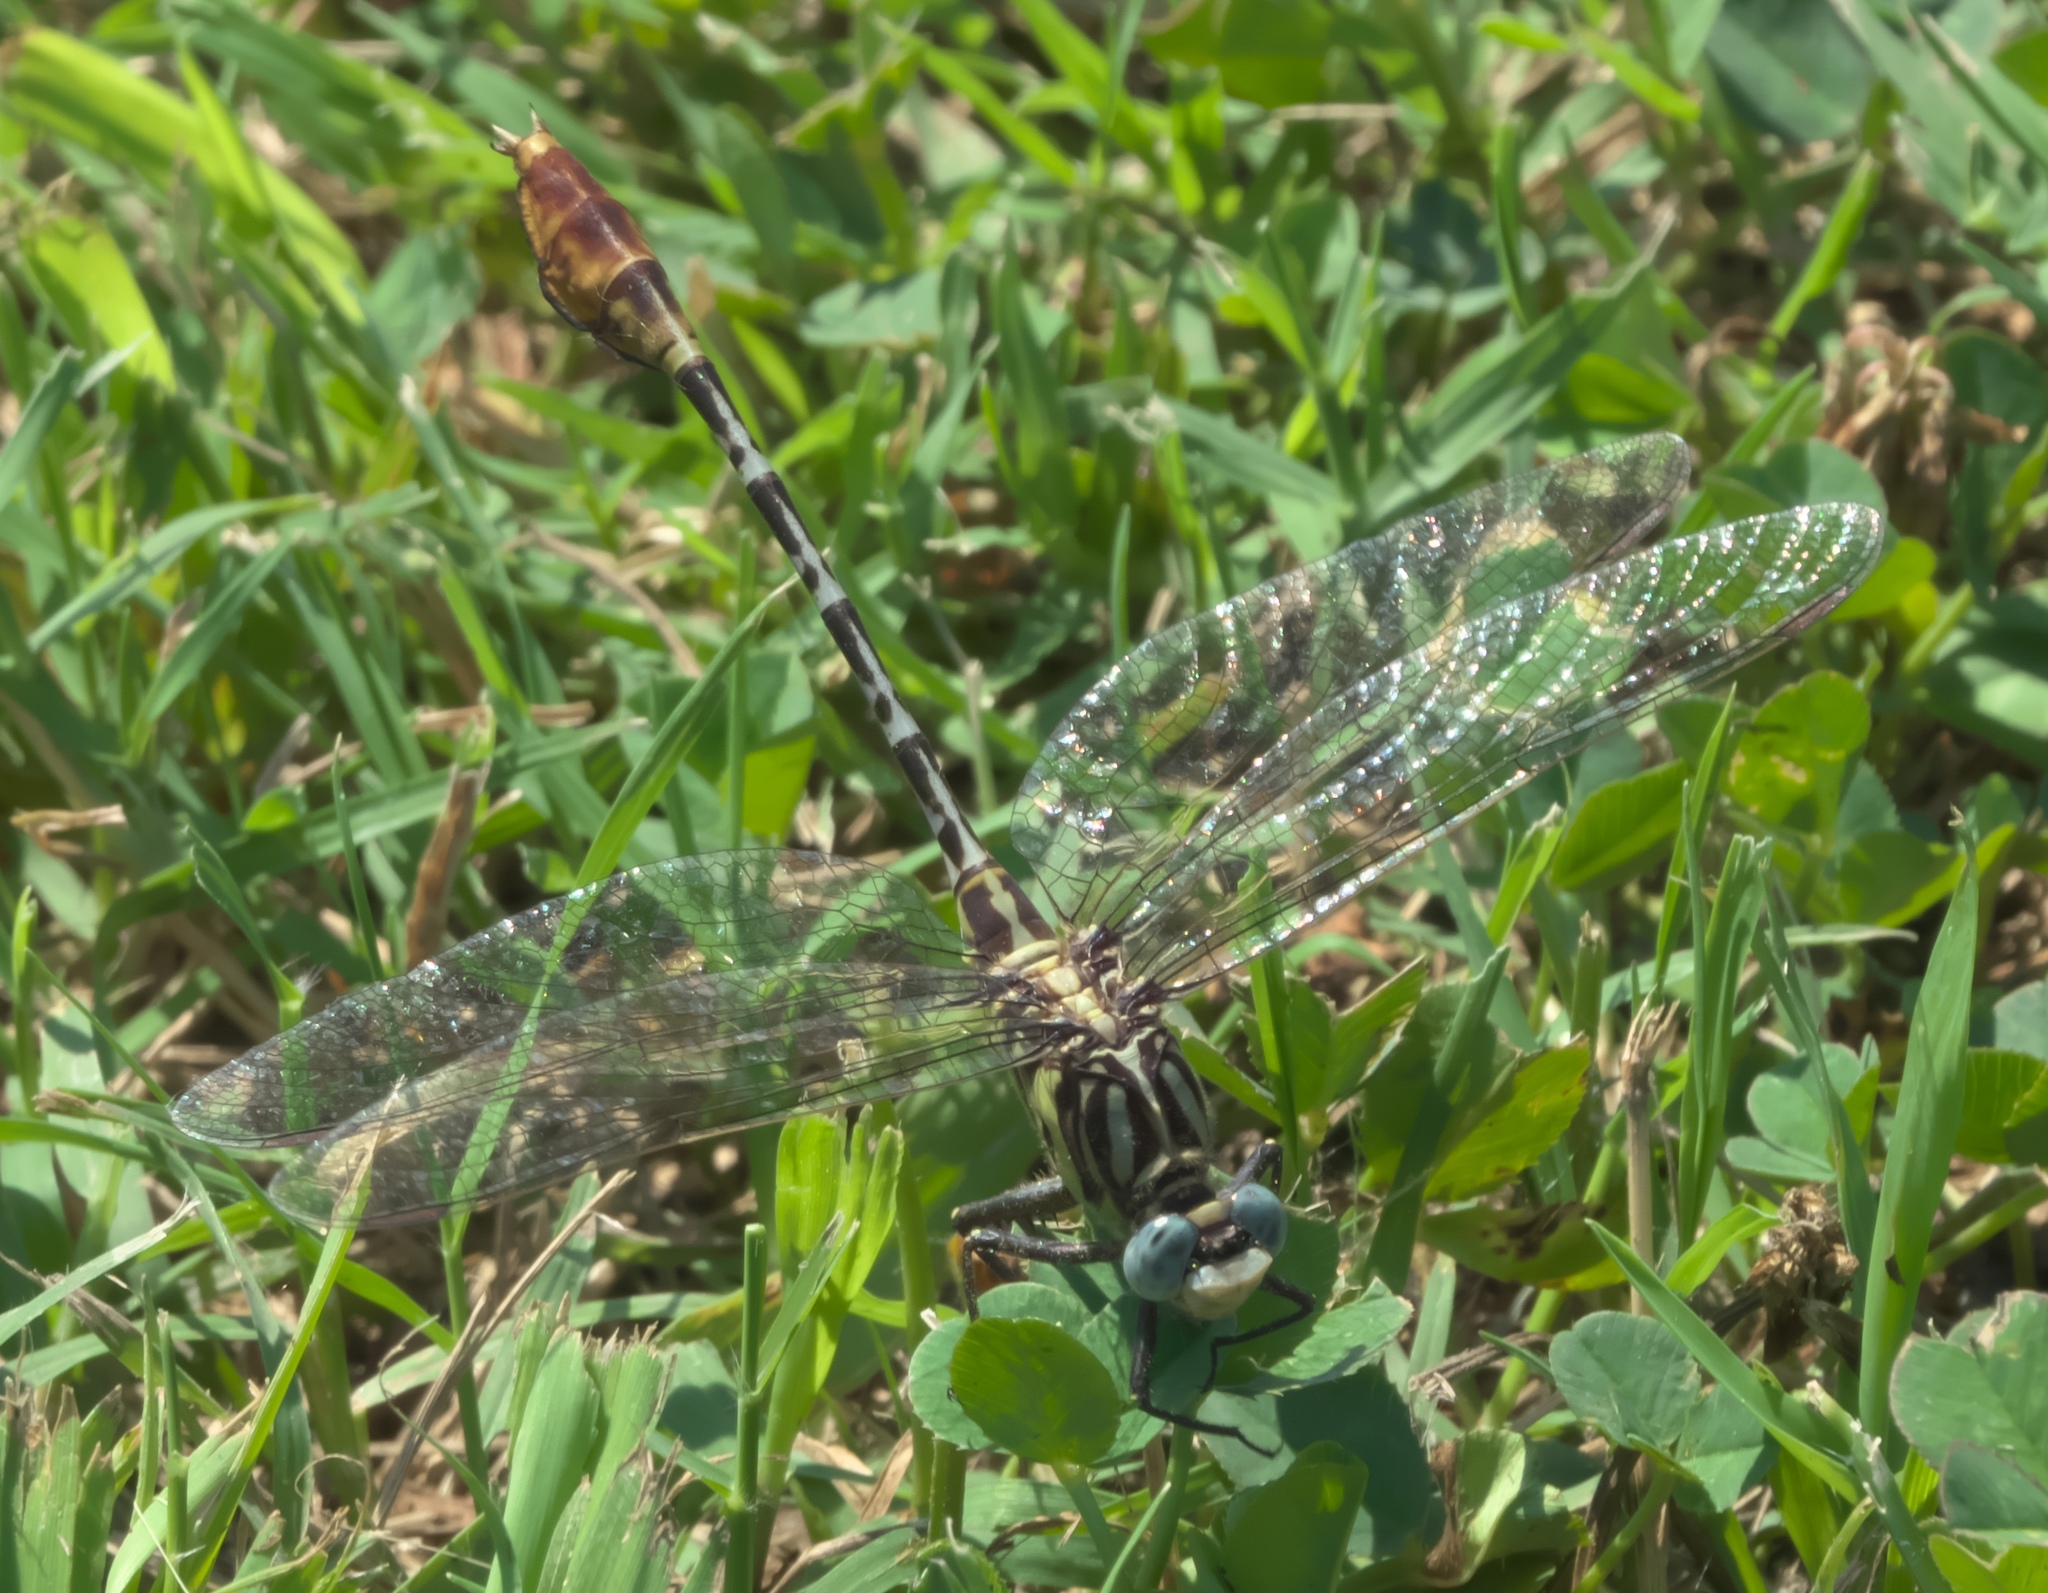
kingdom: Animalia
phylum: Arthropoda
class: Insecta
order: Odonata
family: Gomphidae
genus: Dromogomphus
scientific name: Dromogomphus spoliatus
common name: Flag-tailed spinyleg
